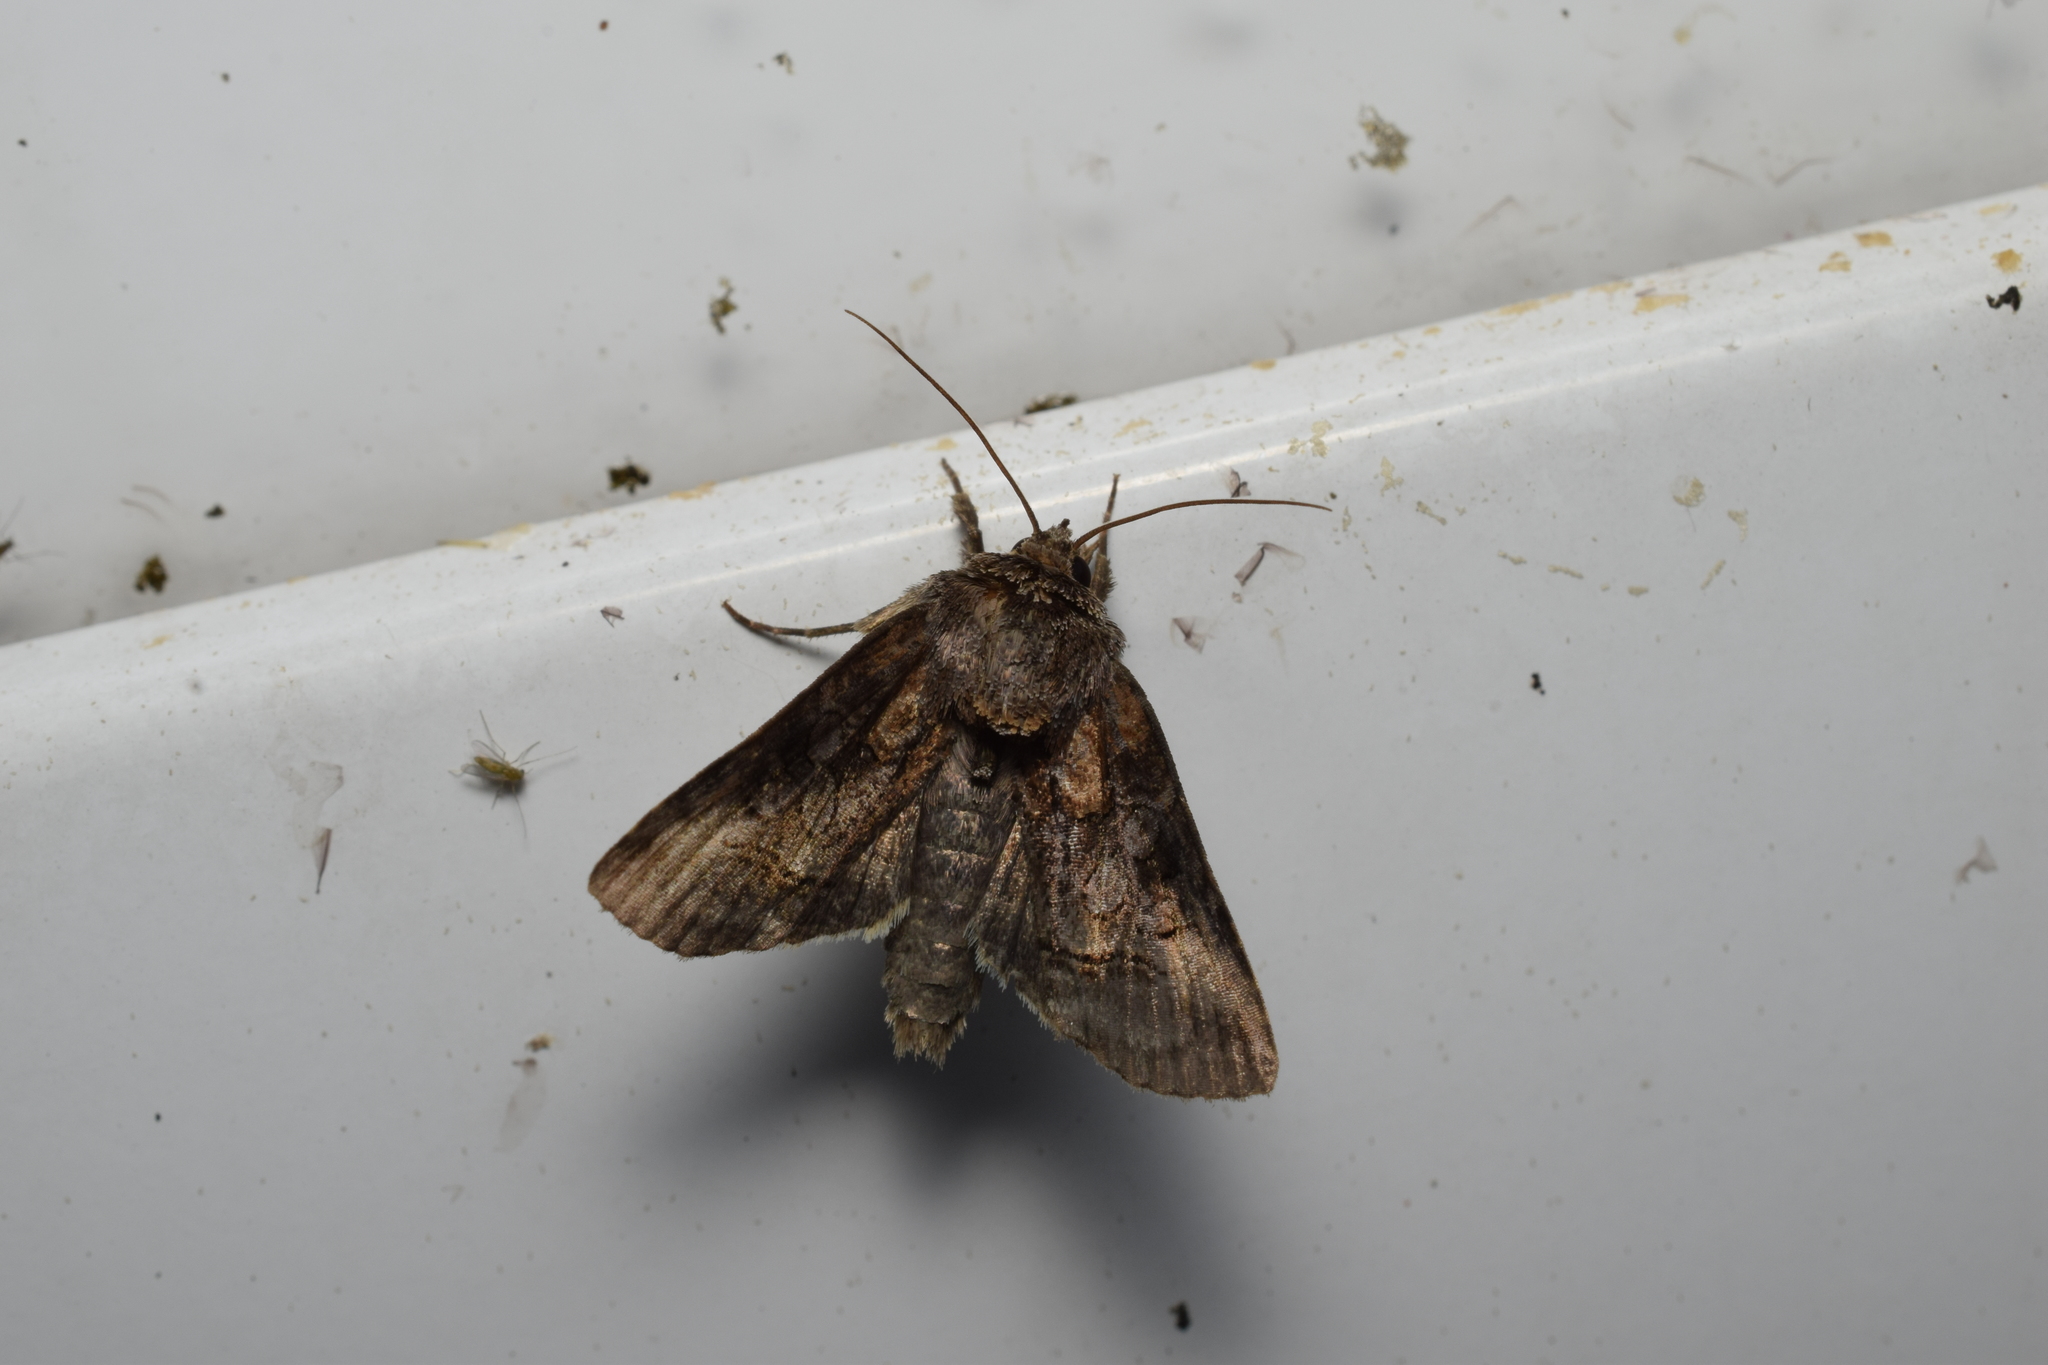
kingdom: Animalia
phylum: Arthropoda
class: Insecta
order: Lepidoptera
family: Noctuidae
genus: Abrostola
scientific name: Abrostola abrostolina
